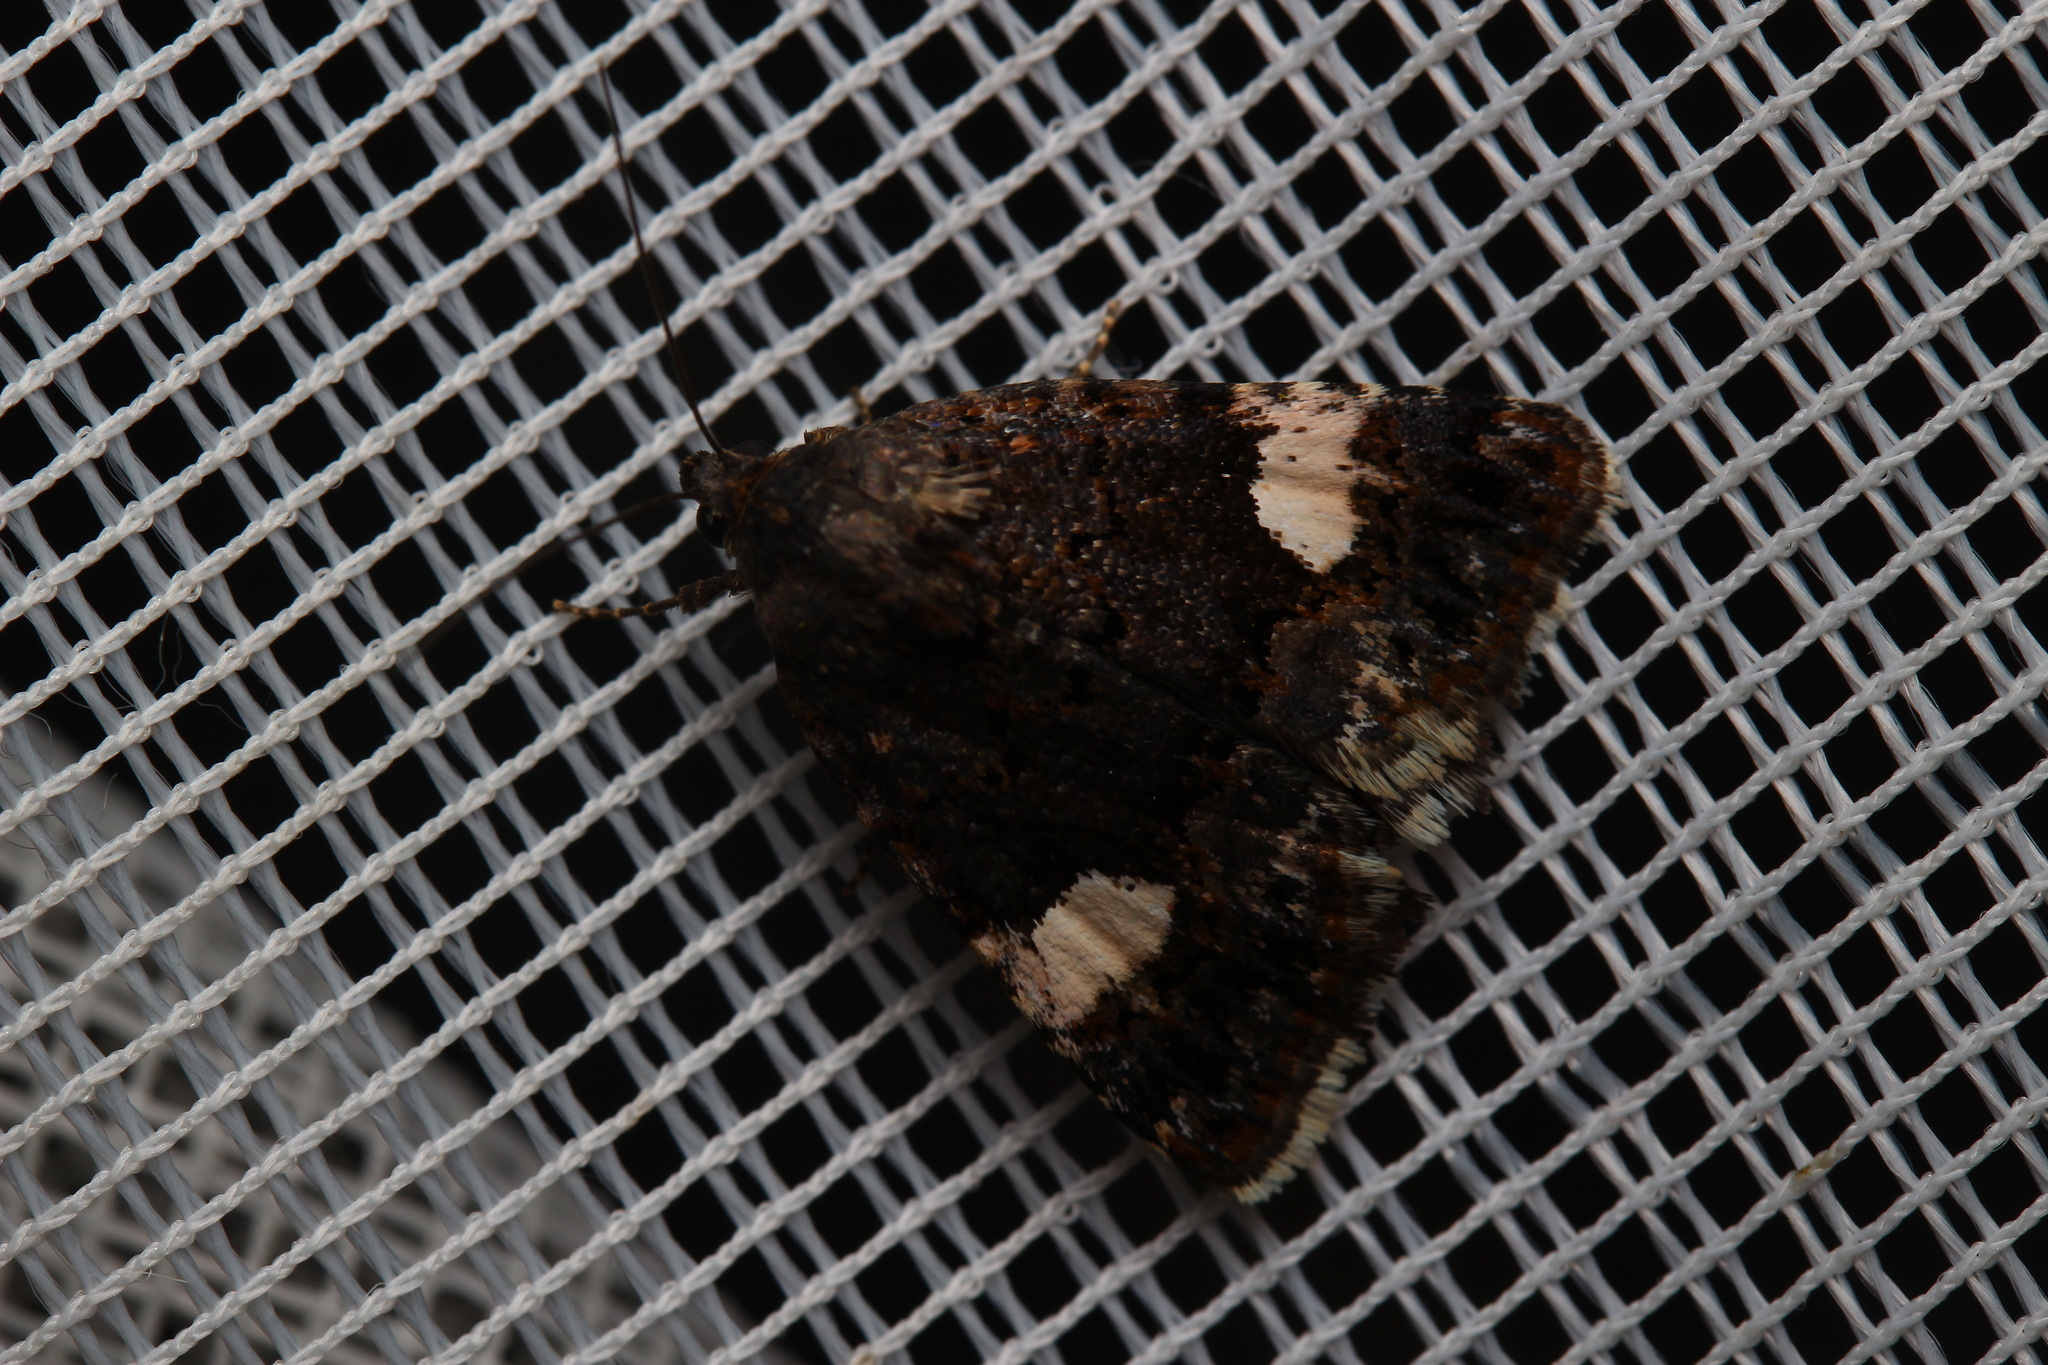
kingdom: Animalia
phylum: Arthropoda
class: Insecta
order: Lepidoptera
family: Erebidae
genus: Tyta
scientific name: Tyta luctuosa
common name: Four-spotted
